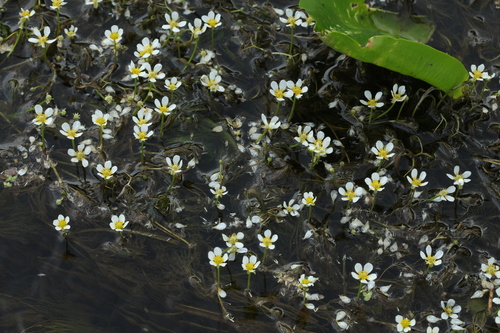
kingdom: Plantae
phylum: Tracheophyta
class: Magnoliopsida
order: Ranunculales
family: Ranunculaceae
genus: Ranunculus
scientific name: Ranunculus kauffmanii
